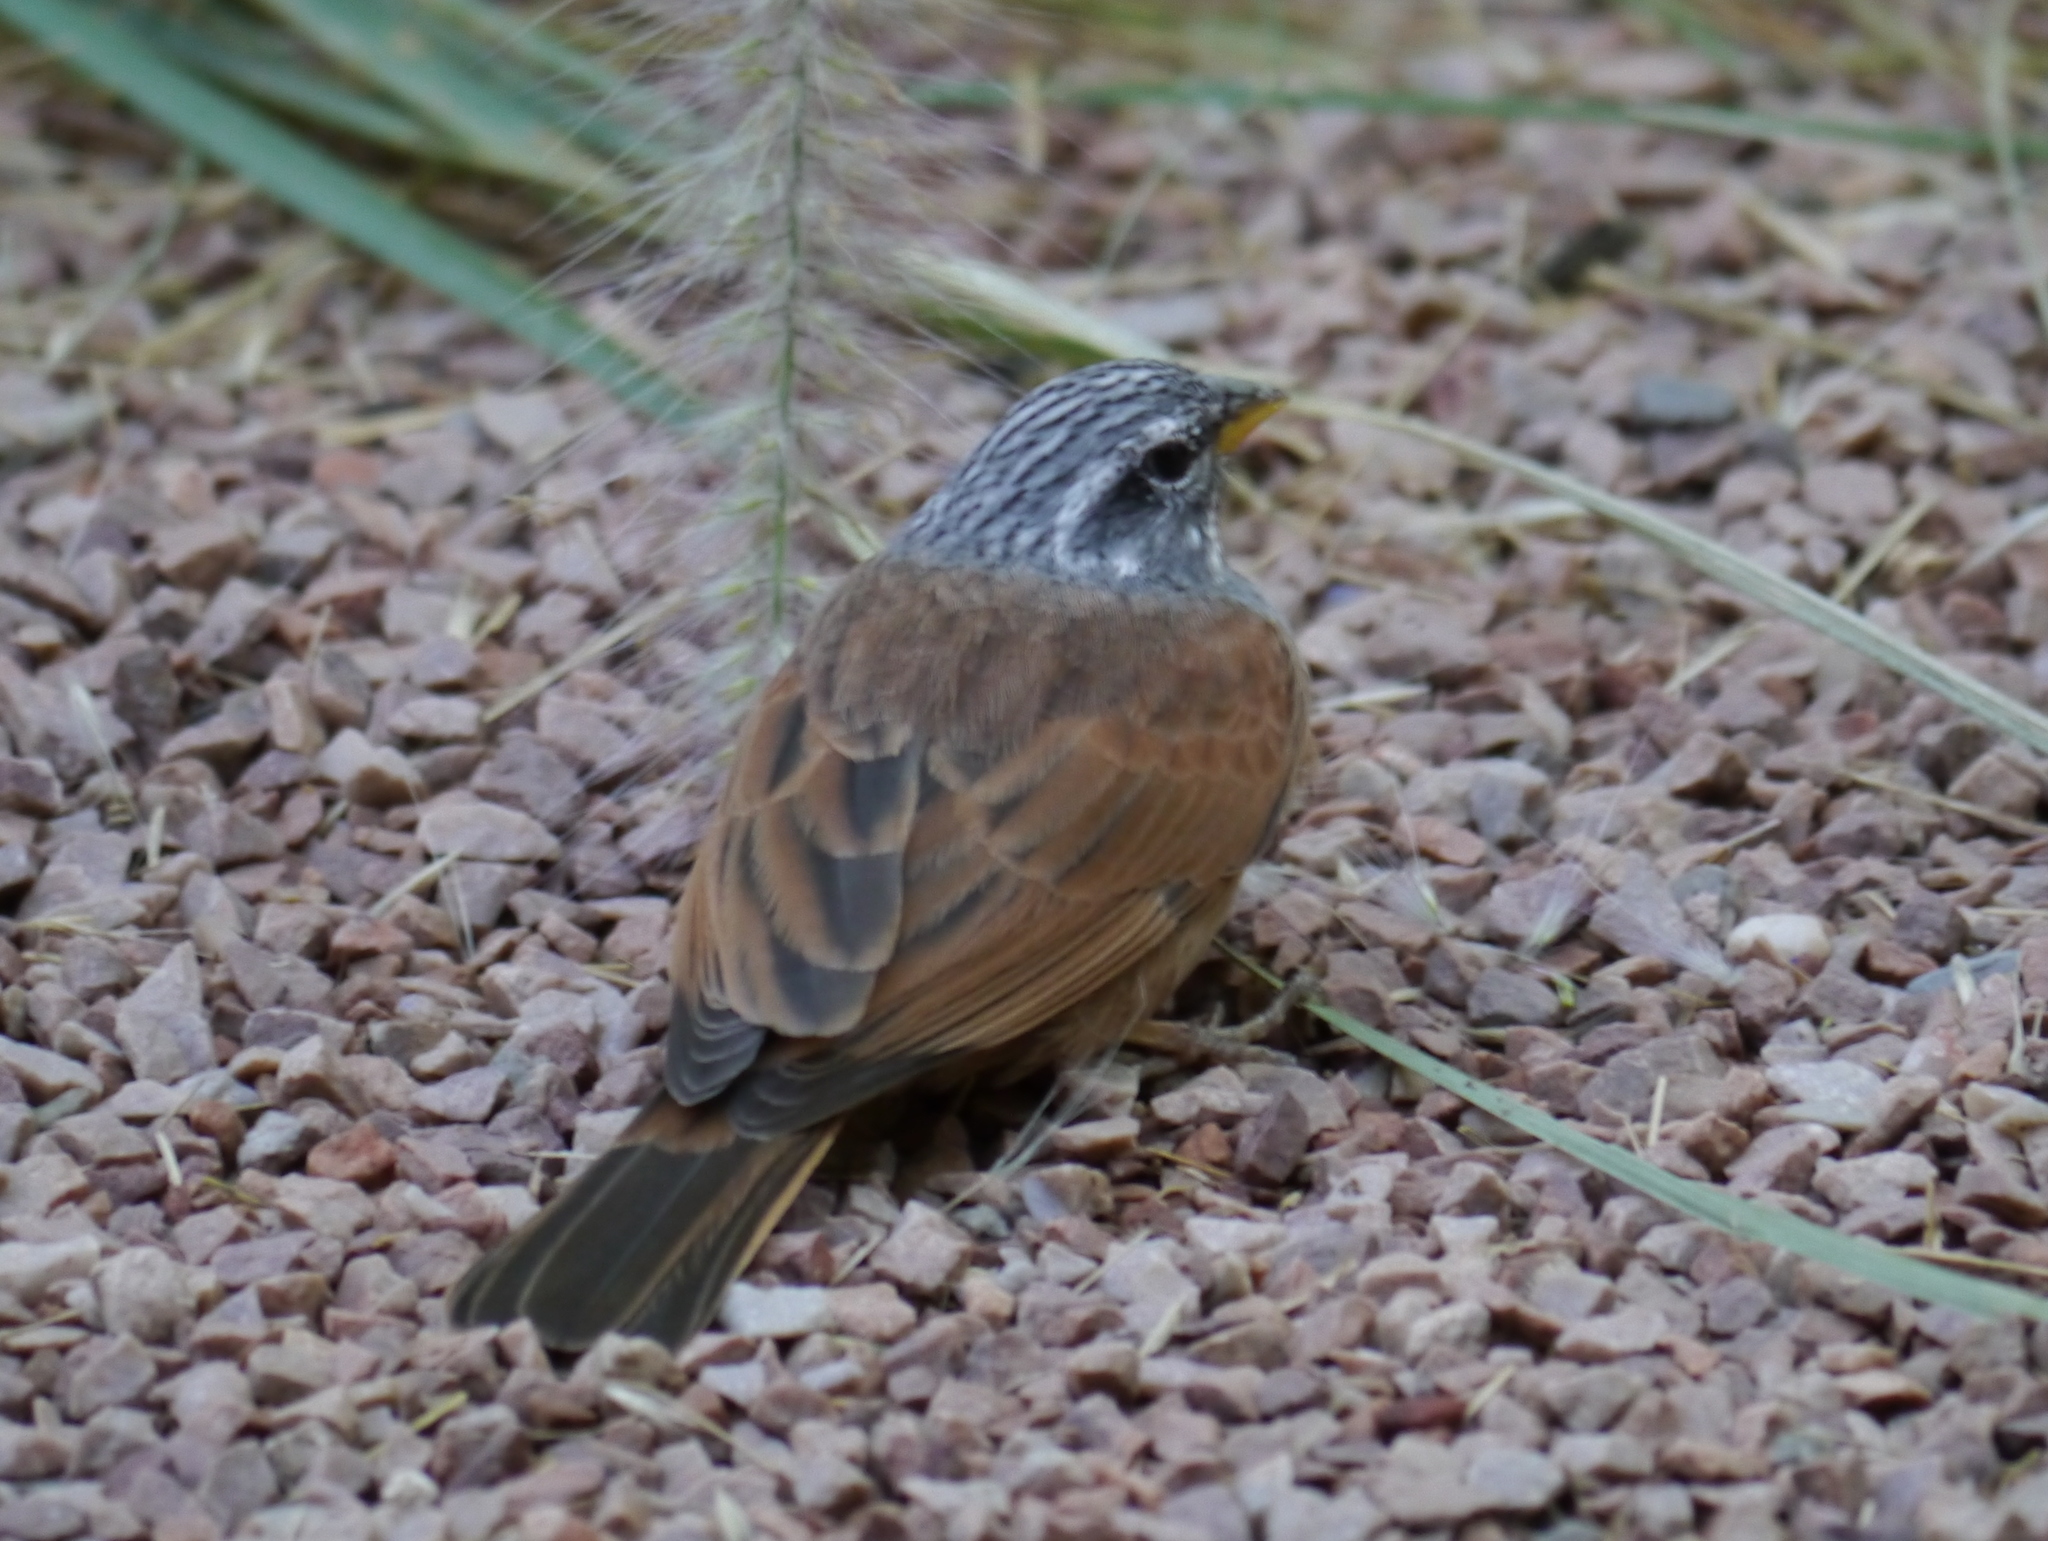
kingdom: Animalia
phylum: Chordata
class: Aves
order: Passeriformes
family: Emberizidae
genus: Emberiza
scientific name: Emberiza sahari
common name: House bunting
